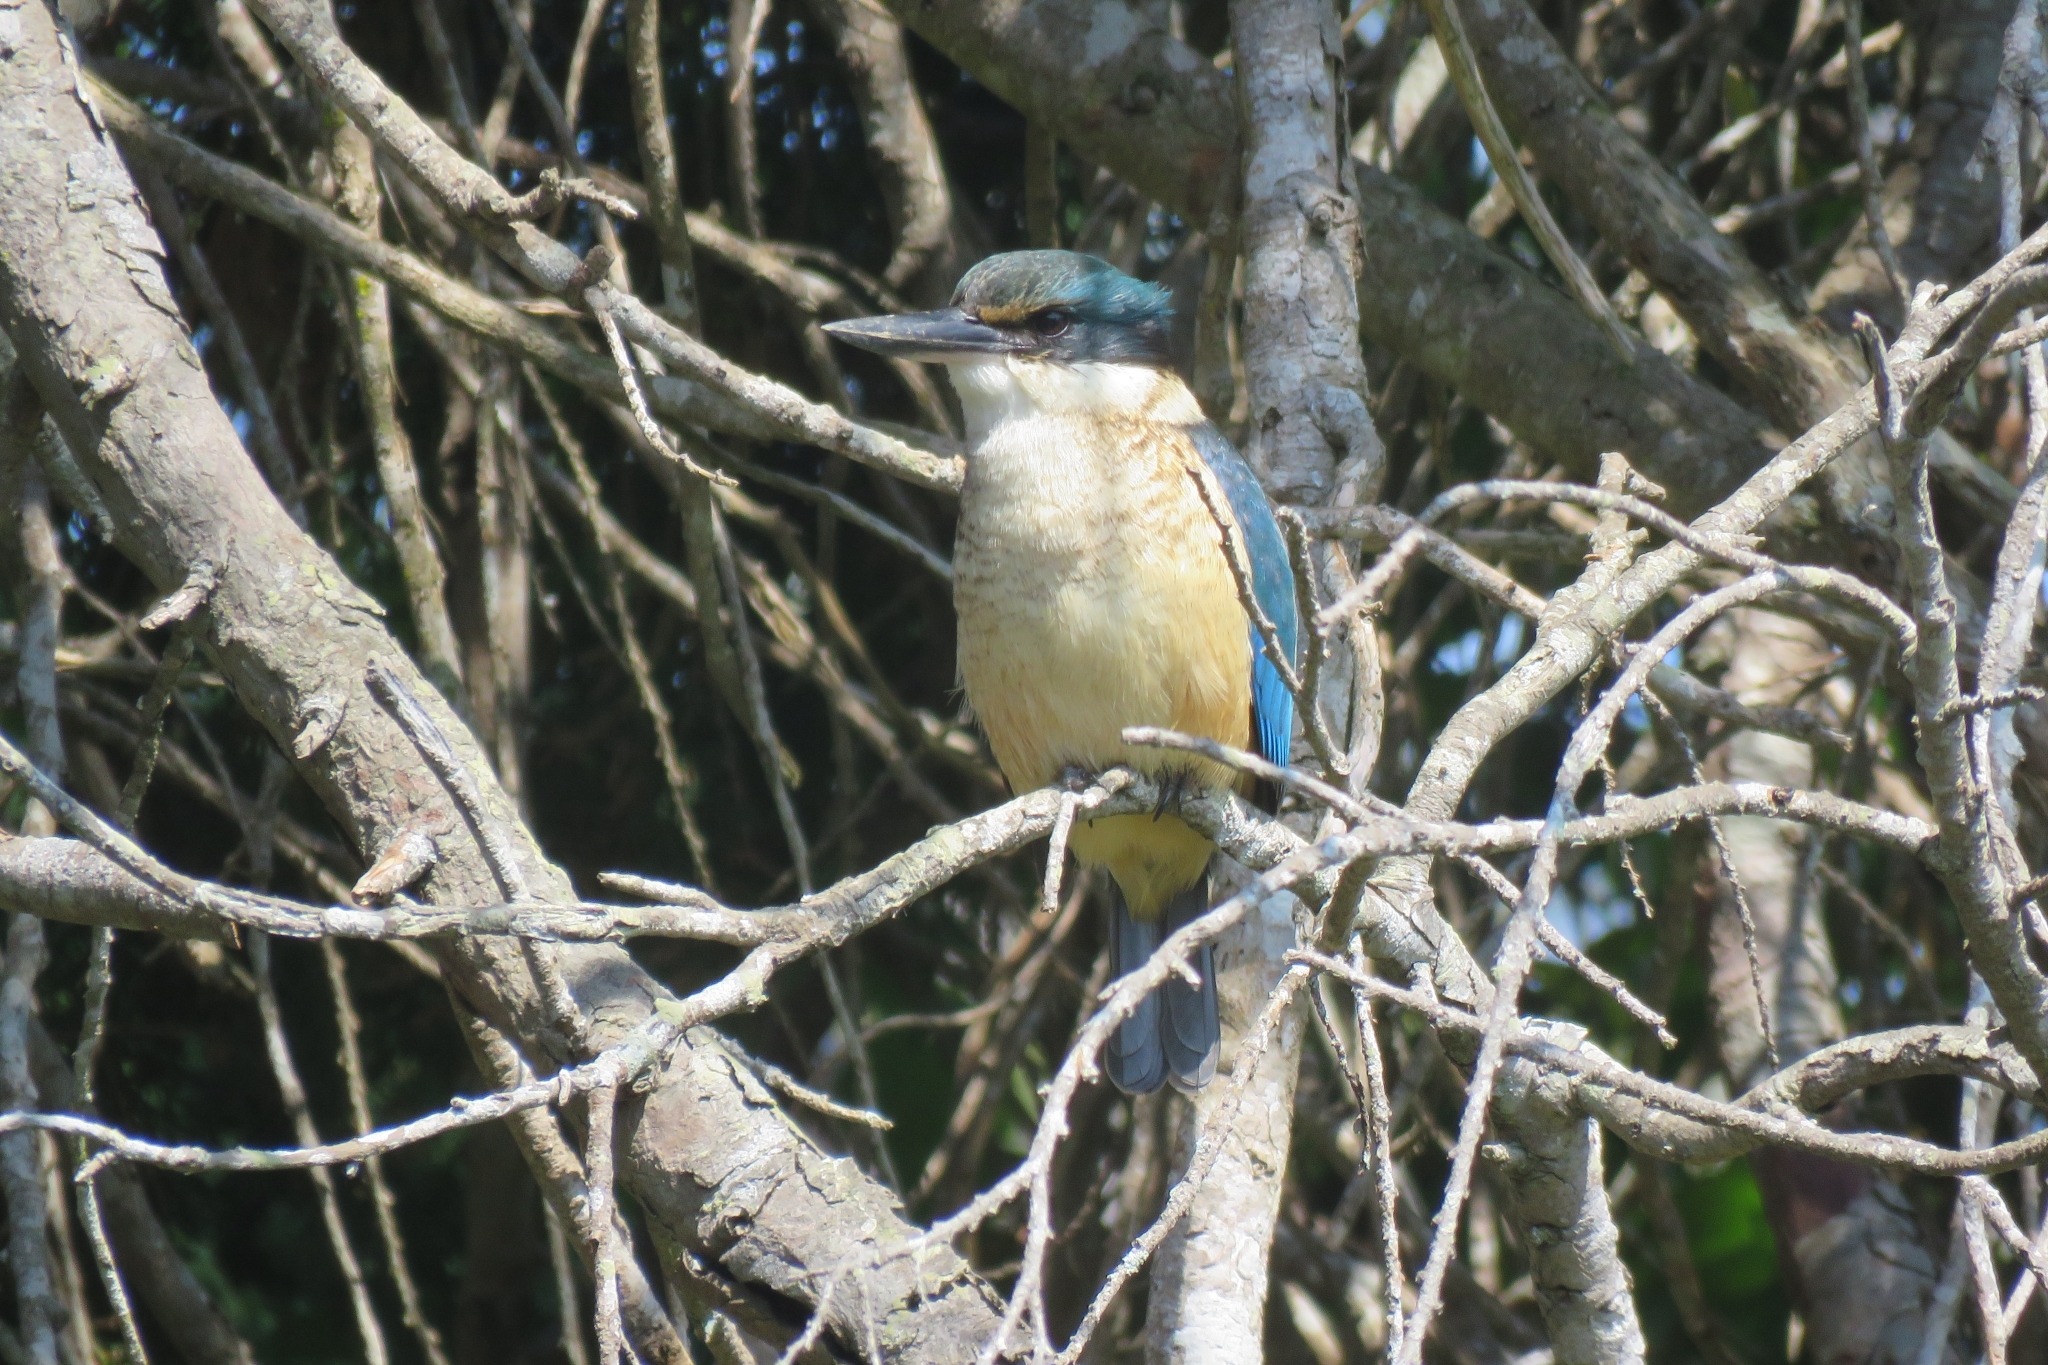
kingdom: Animalia
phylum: Chordata
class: Aves
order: Coraciiformes
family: Alcedinidae
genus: Todiramphus
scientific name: Todiramphus sanctus
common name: Sacred kingfisher
